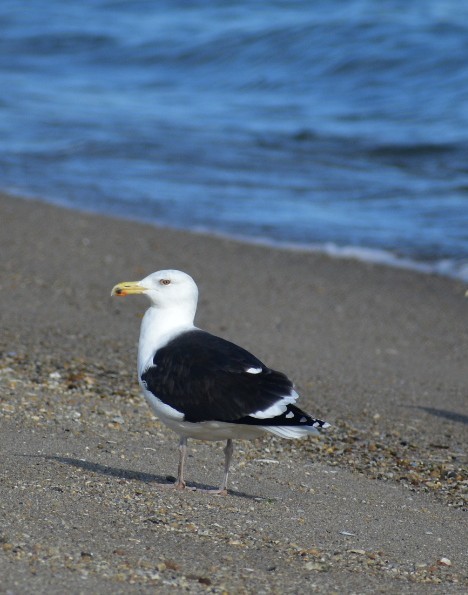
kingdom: Animalia
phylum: Chordata
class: Aves
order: Charadriiformes
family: Laridae
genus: Larus
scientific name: Larus marinus
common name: Great black-backed gull
